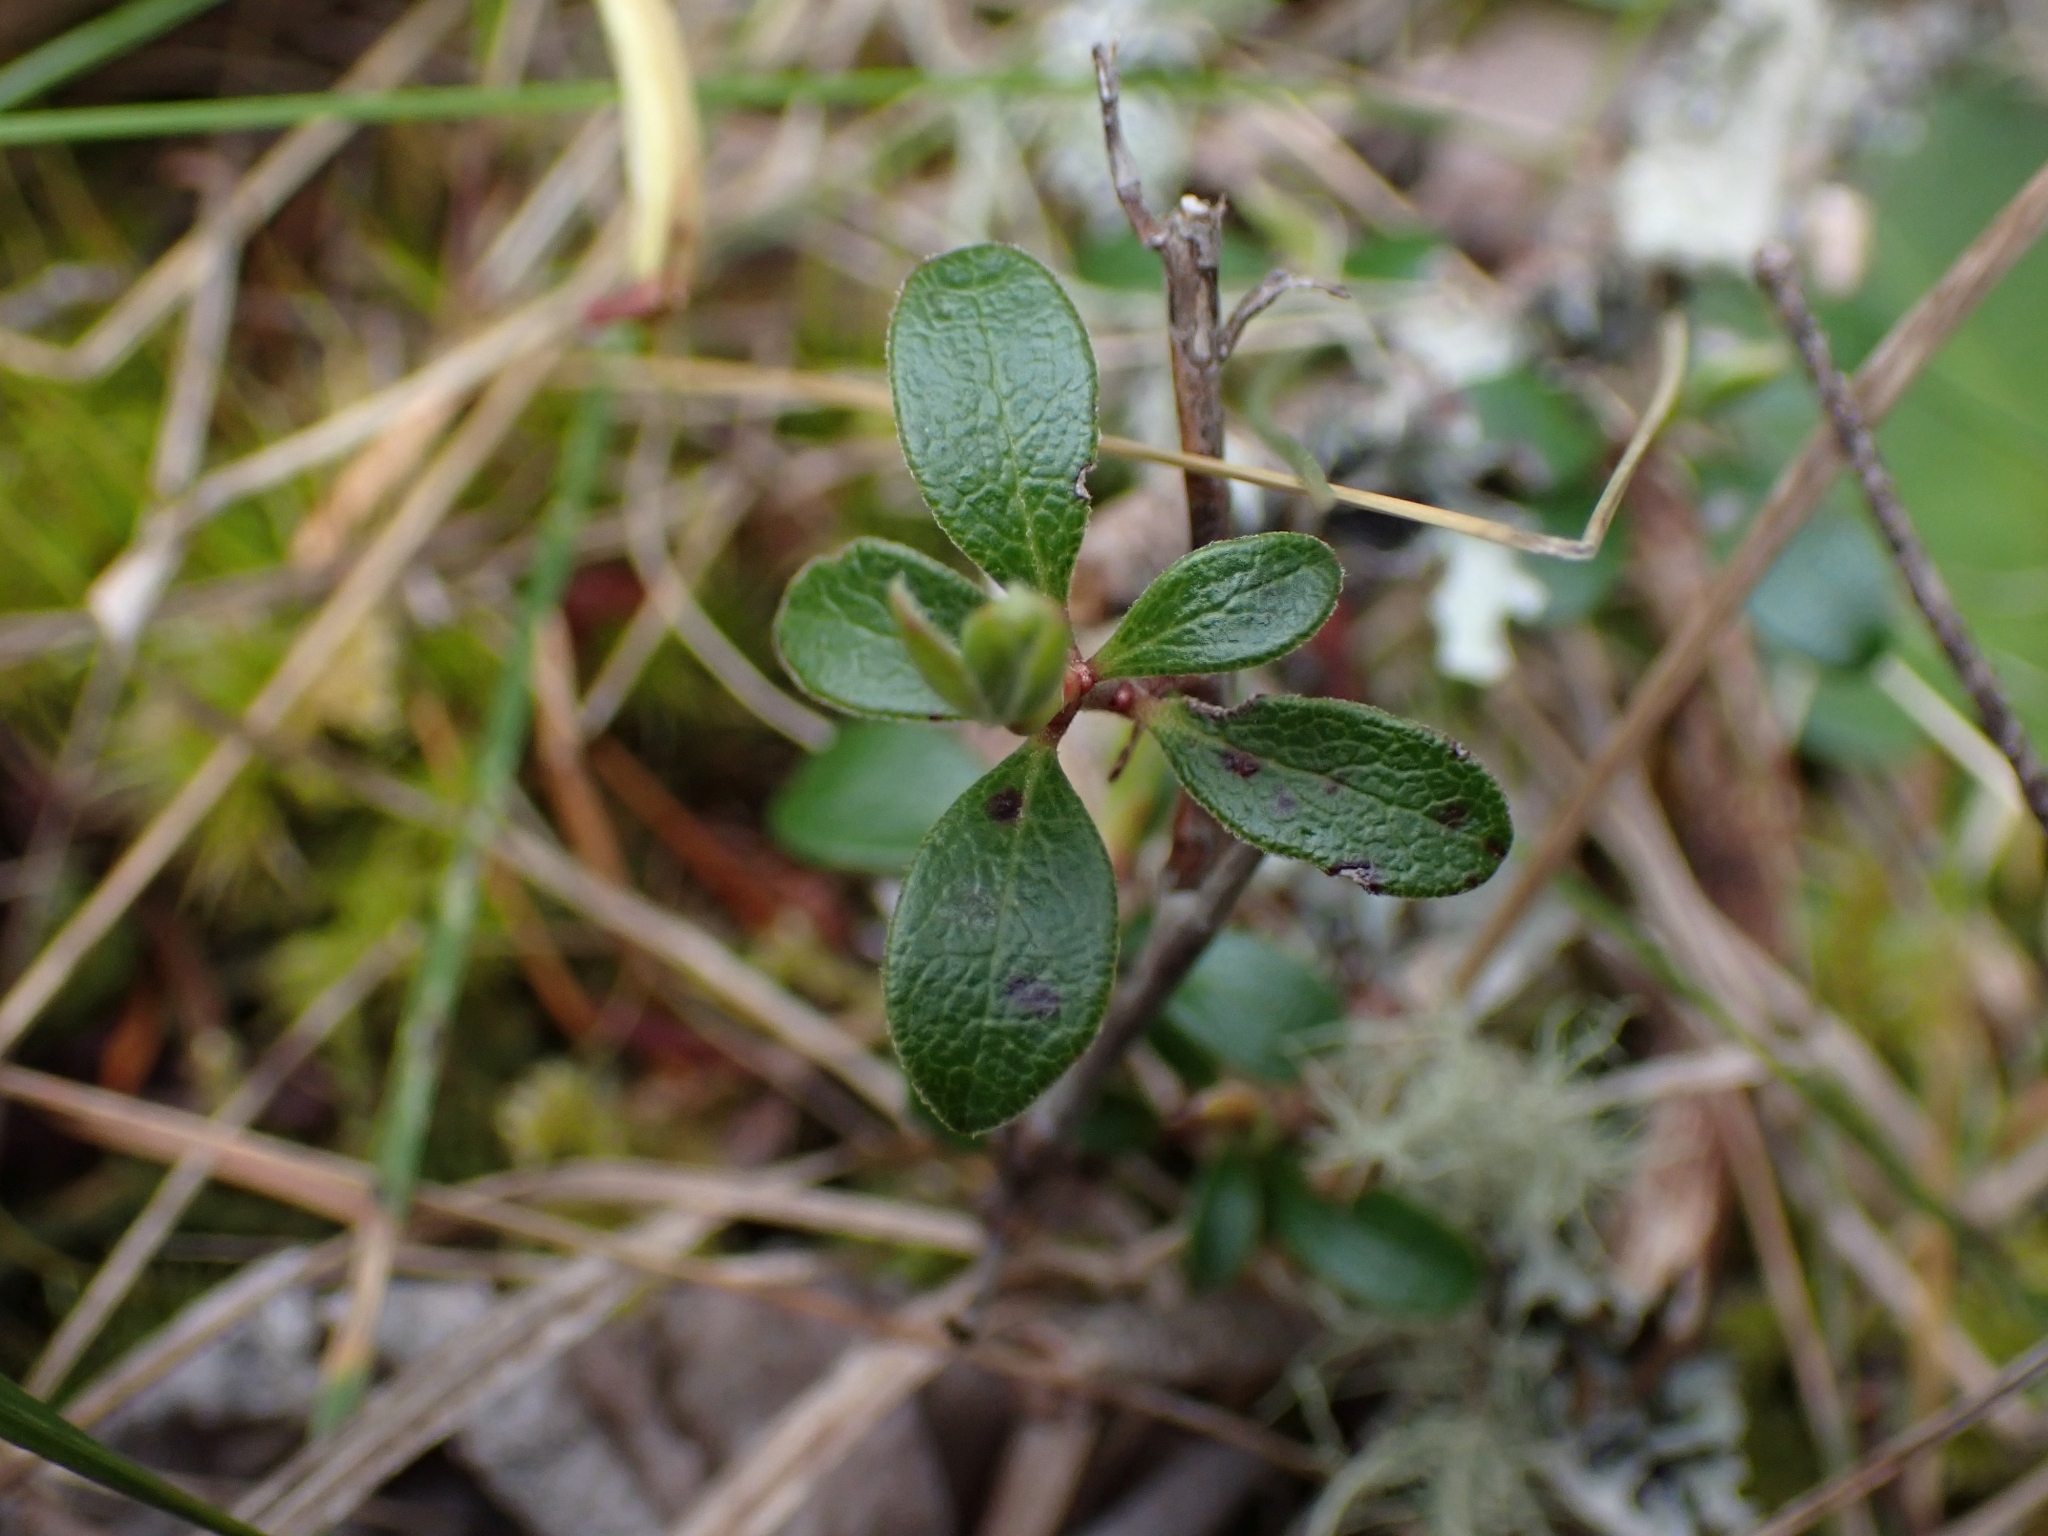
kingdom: Plantae
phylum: Tracheophyta
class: Magnoliopsida
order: Ericales
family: Ericaceae
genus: Arctostaphylos
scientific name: Arctostaphylos uva-ursi
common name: Bearberry
